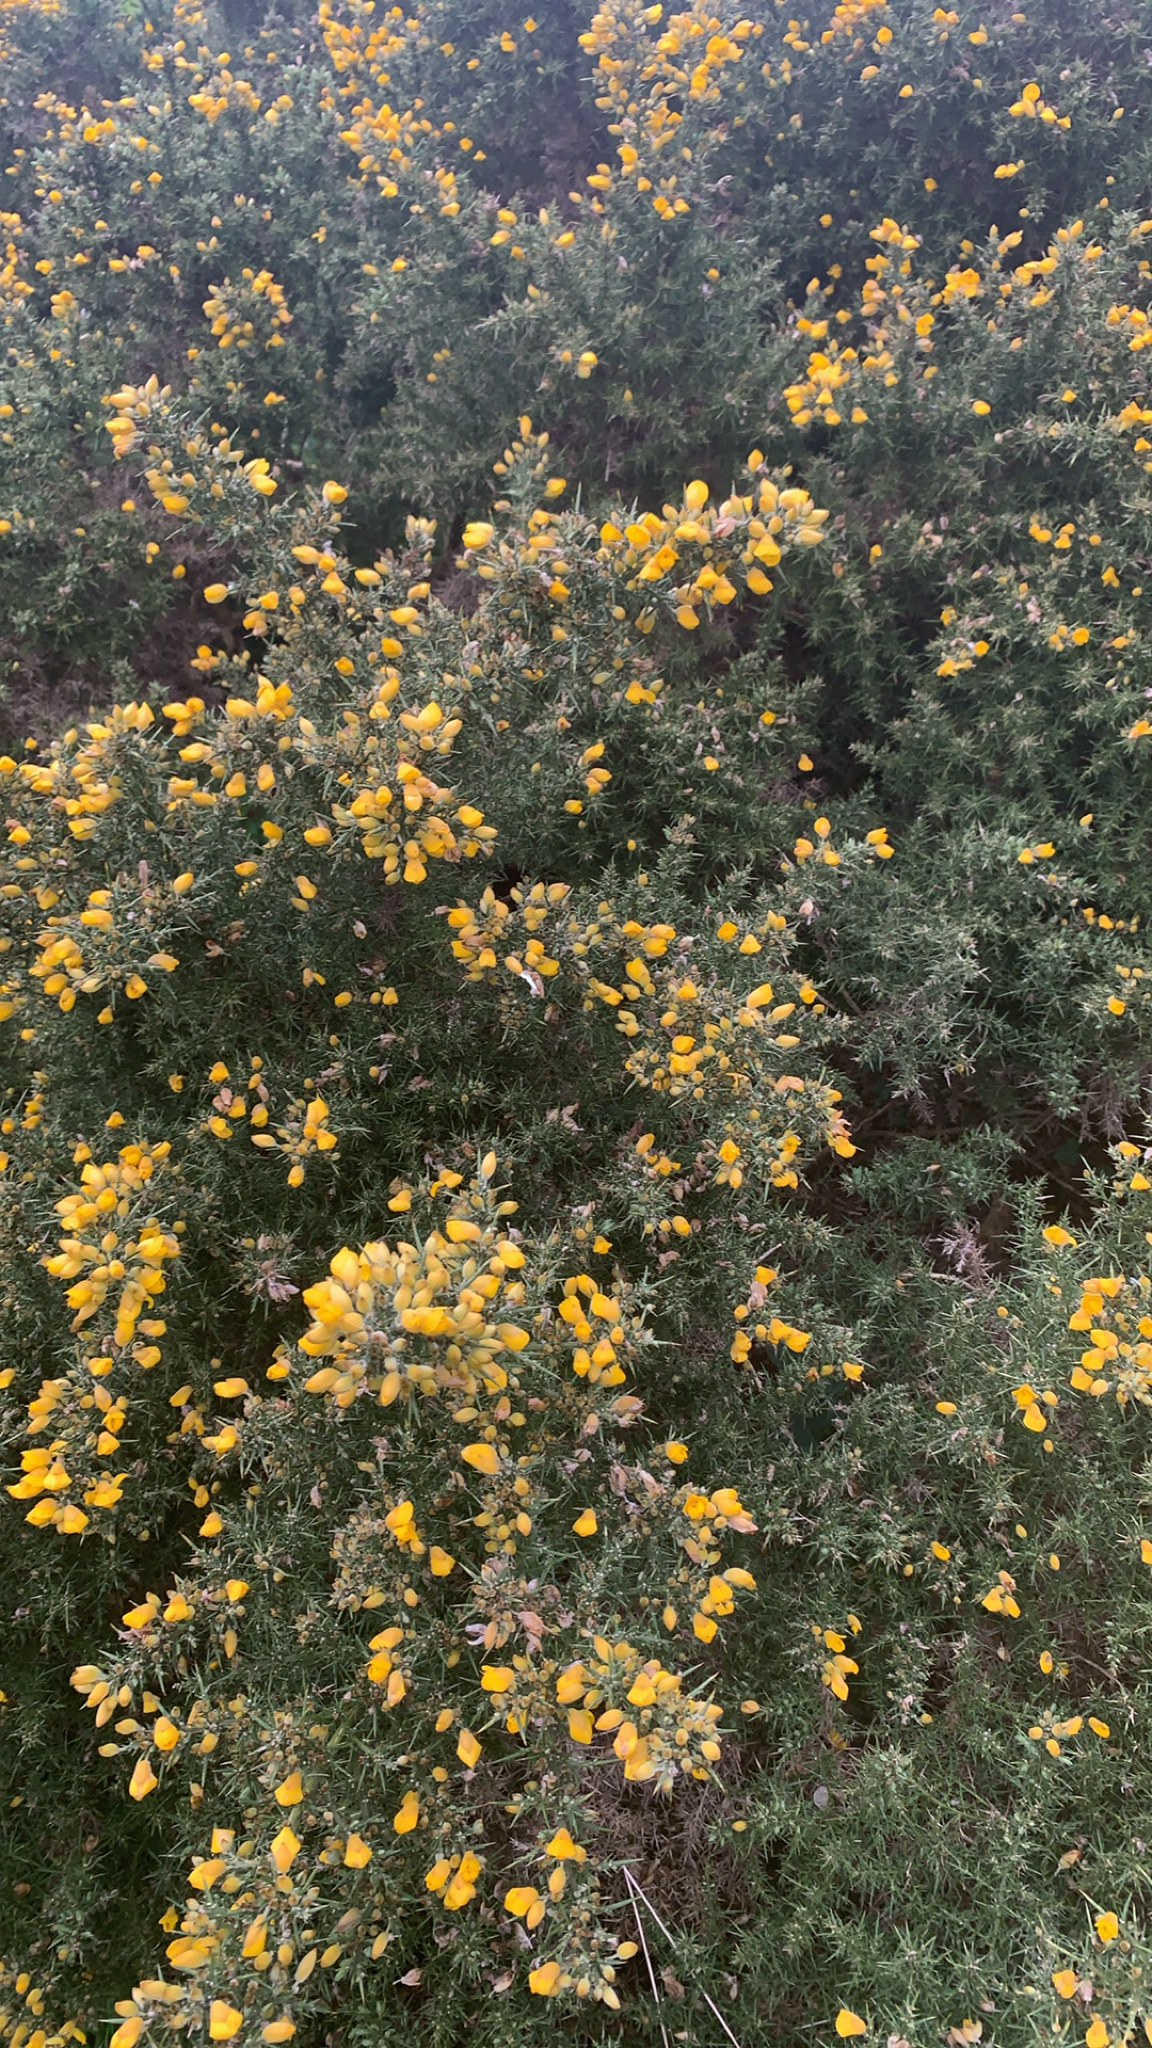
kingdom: Plantae
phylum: Tracheophyta
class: Magnoliopsida
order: Fabales
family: Fabaceae
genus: Ulex
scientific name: Ulex europaeus
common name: Common gorse
